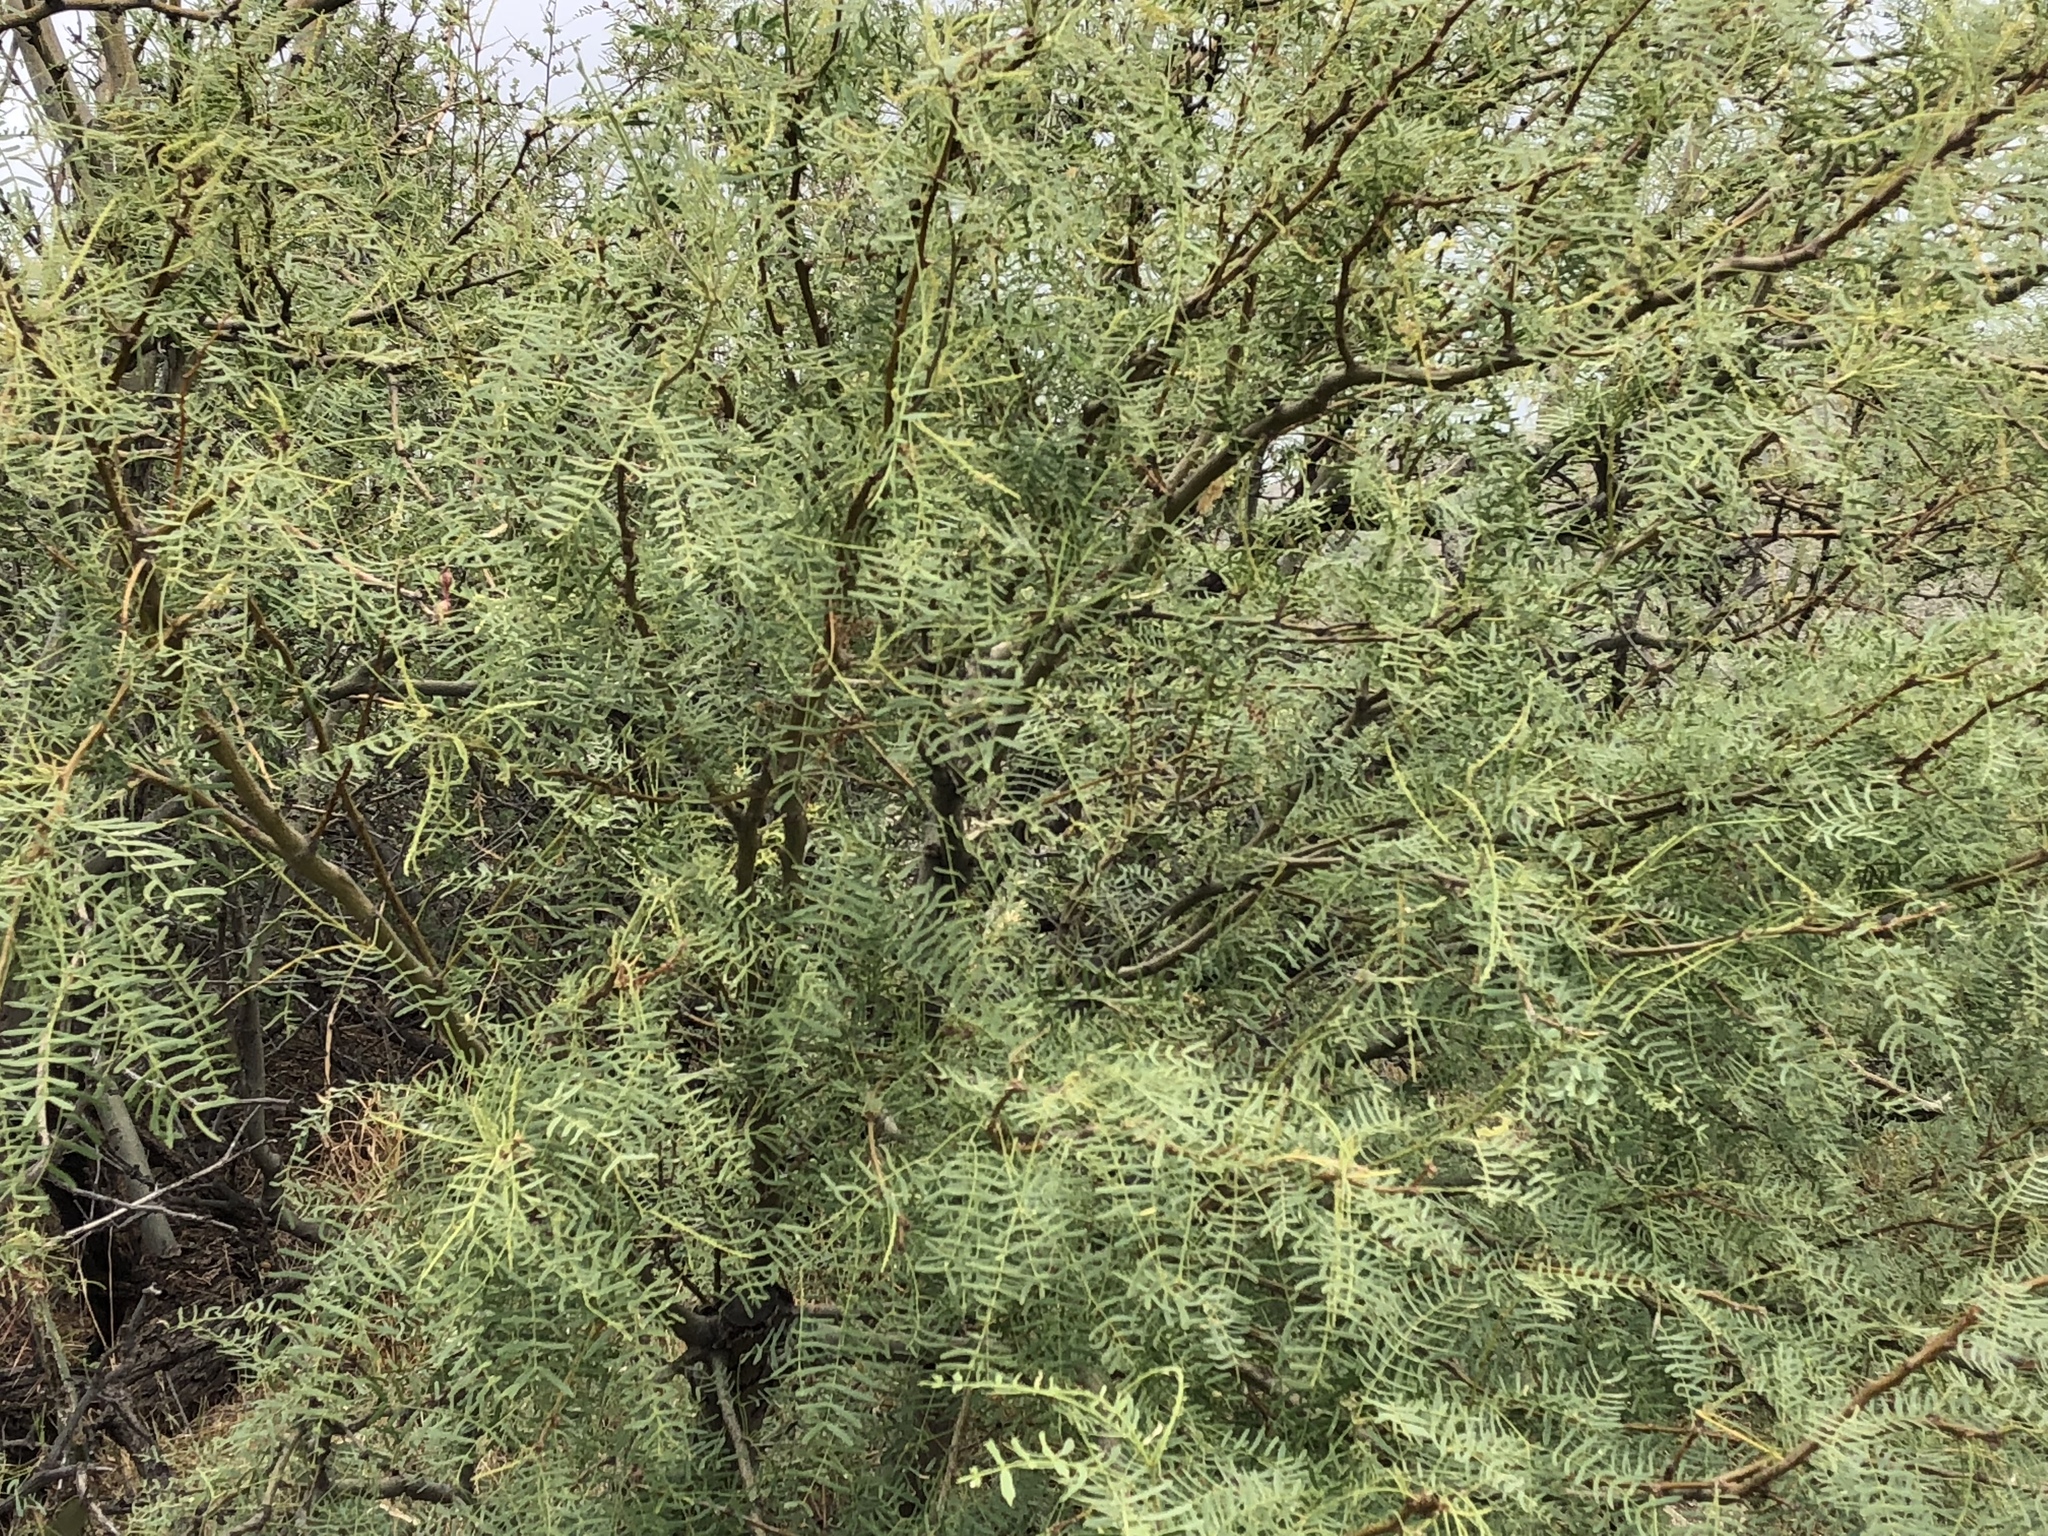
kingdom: Plantae
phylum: Tracheophyta
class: Magnoliopsida
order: Fabales
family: Fabaceae
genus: Prosopis
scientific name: Prosopis glandulosa
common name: Honey mesquite
